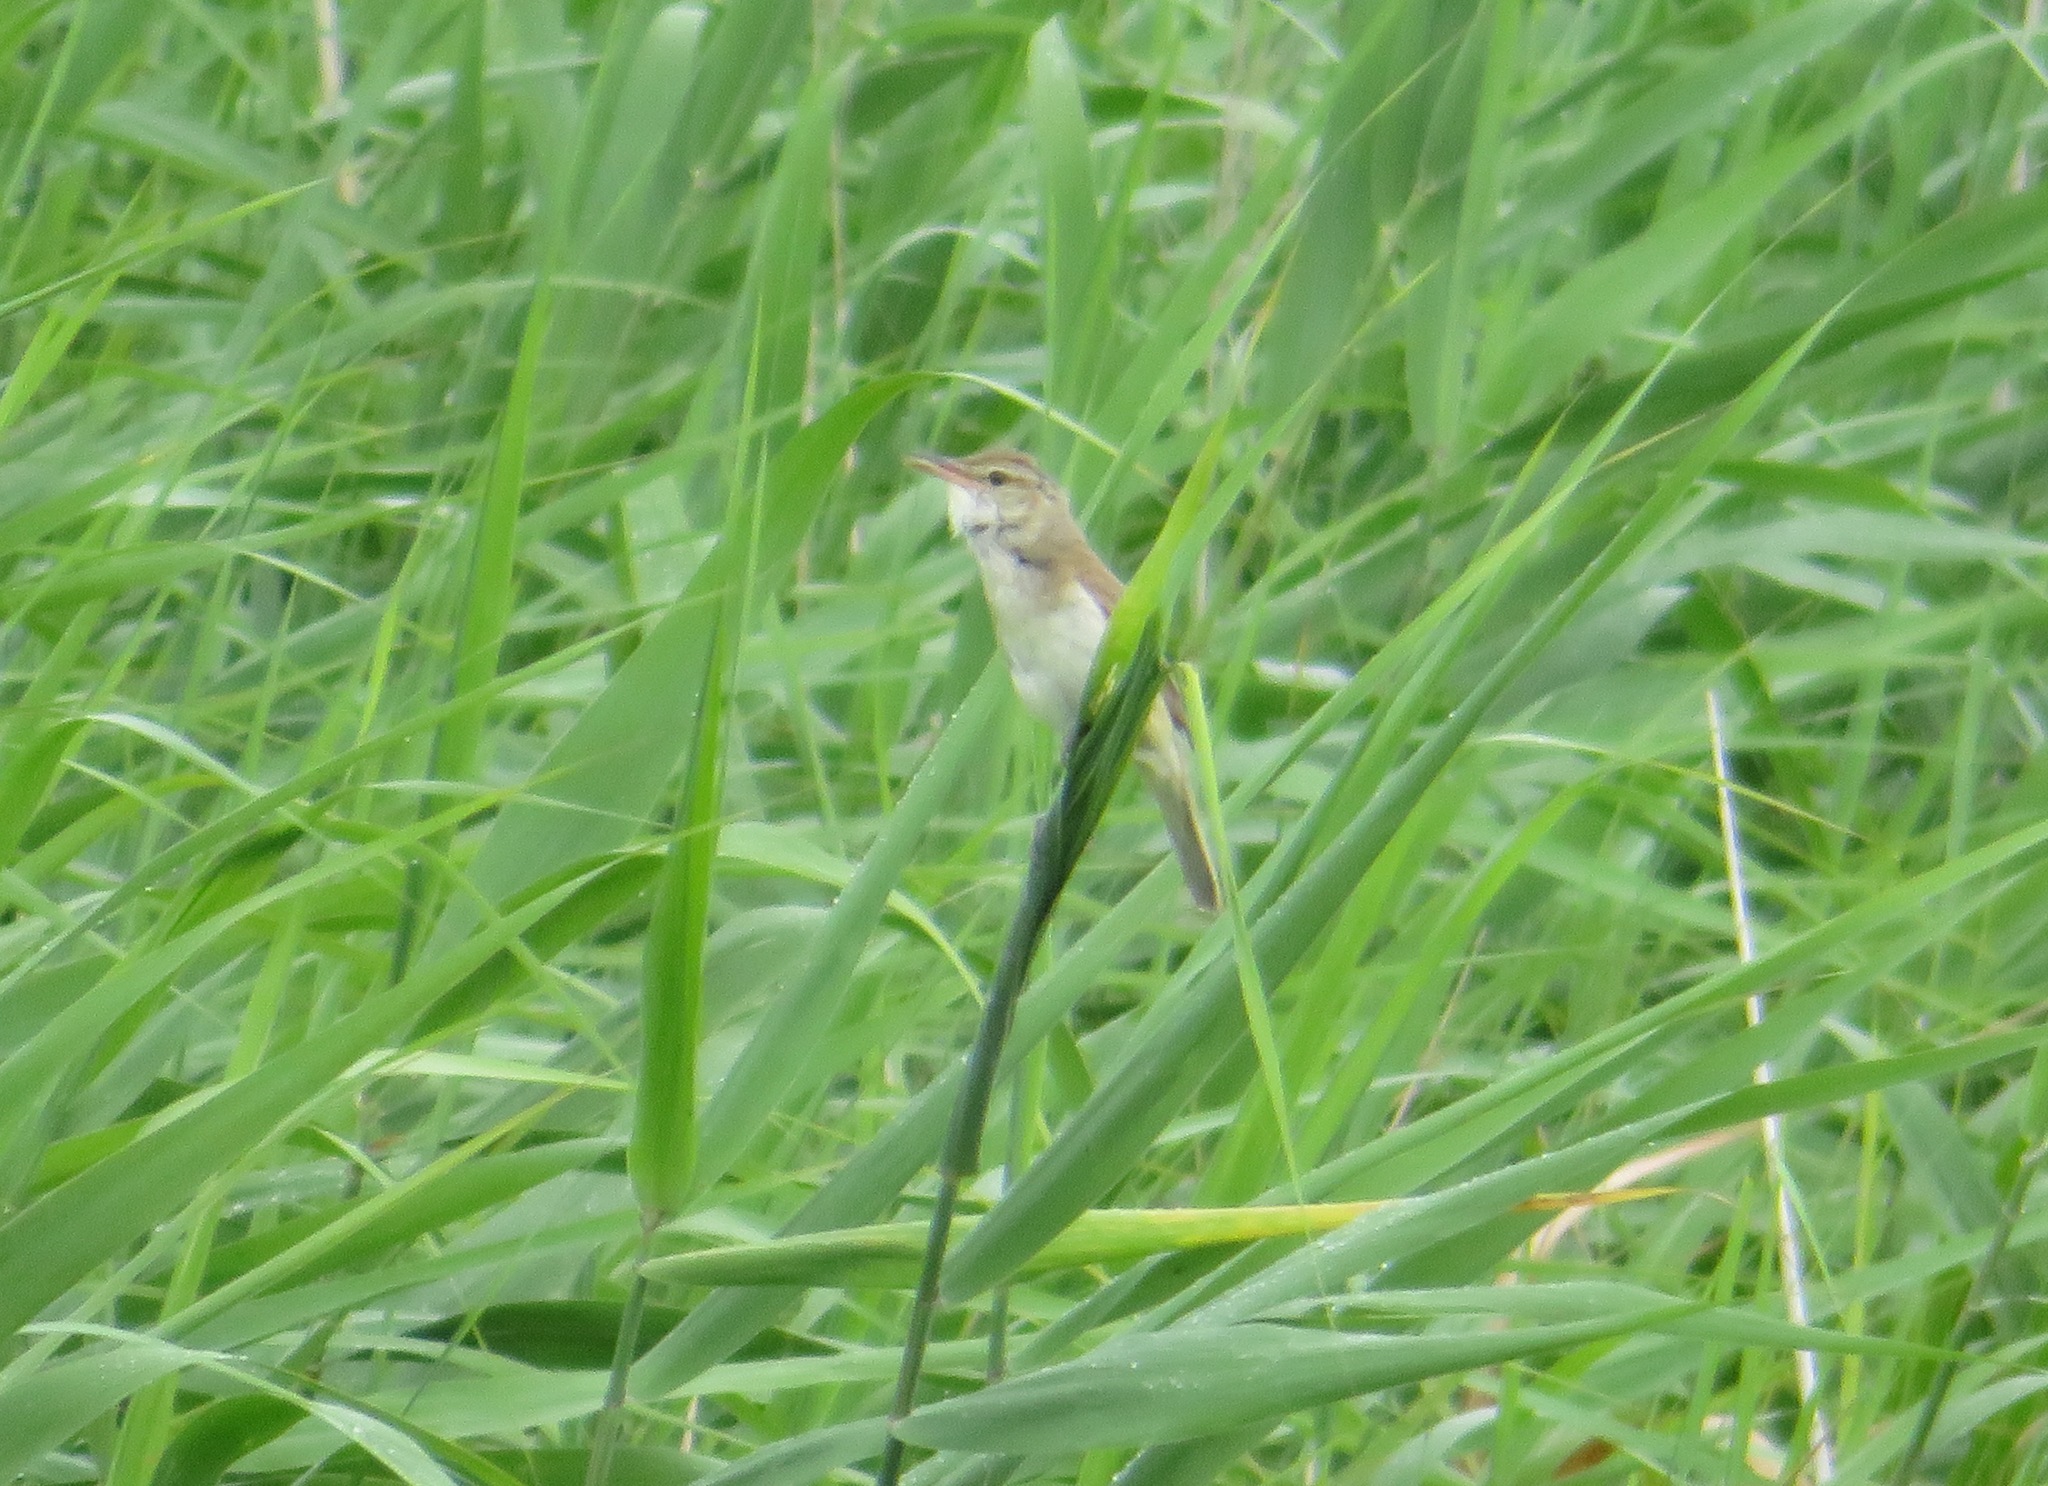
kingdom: Animalia
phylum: Chordata
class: Aves
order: Passeriformes
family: Acrocephalidae
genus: Acrocephalus
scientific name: Acrocephalus orientalis
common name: Oriental reed warbler
